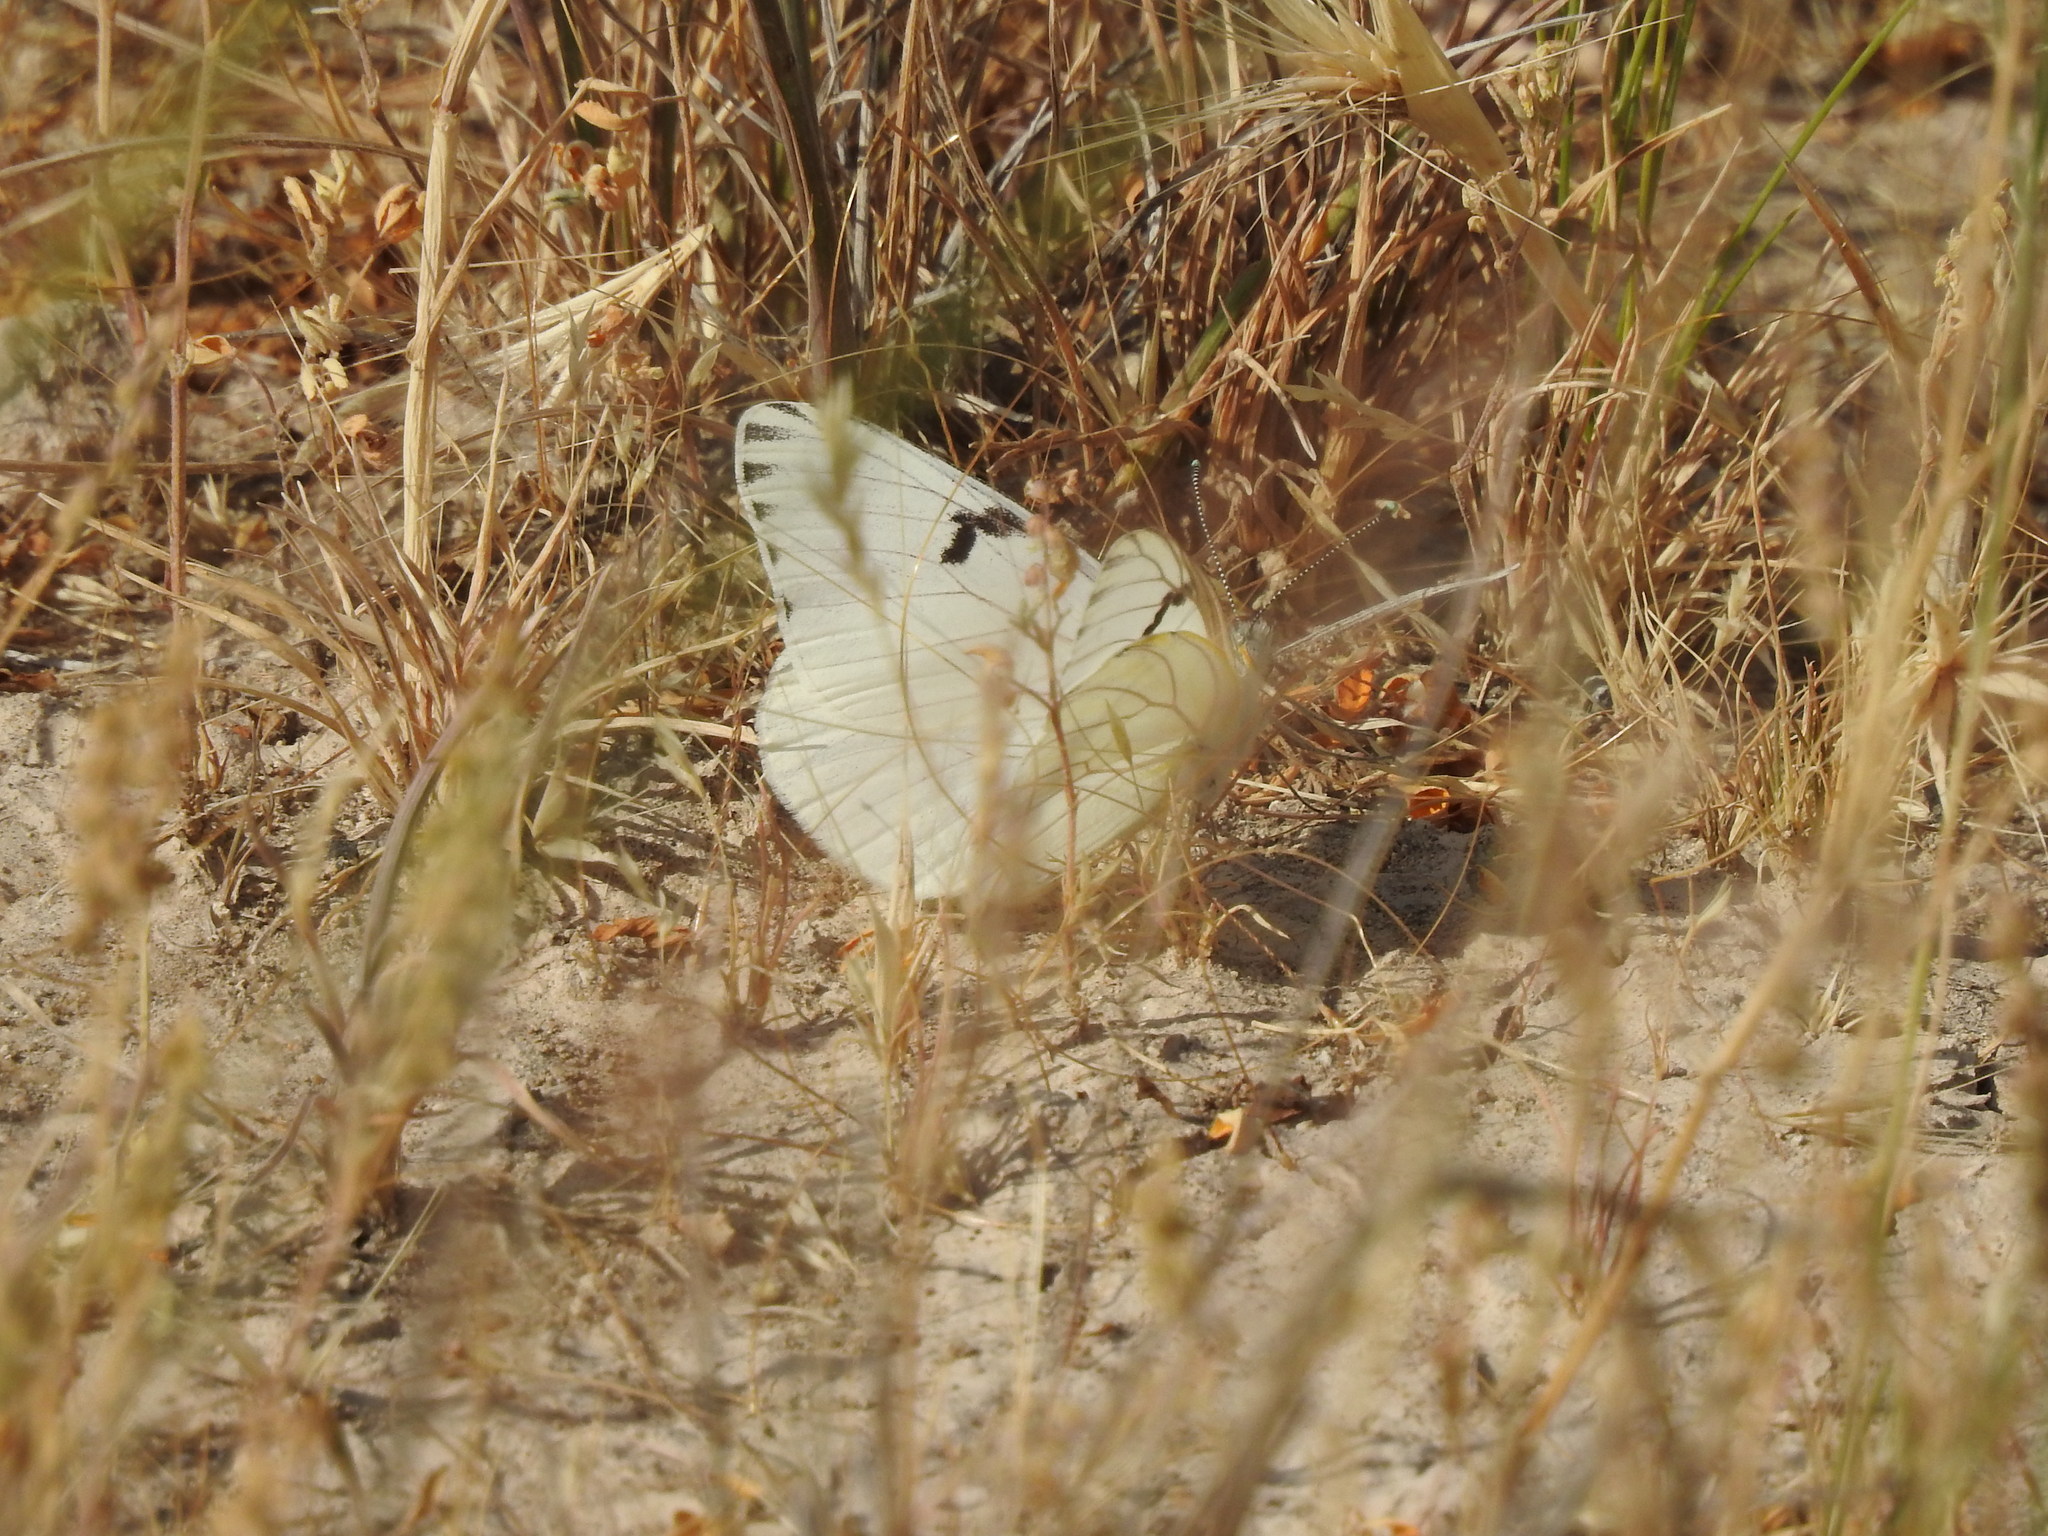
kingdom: Animalia
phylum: Arthropoda
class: Insecta
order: Lepidoptera
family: Pieridae
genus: Tatochila
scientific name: Tatochila mercedis
